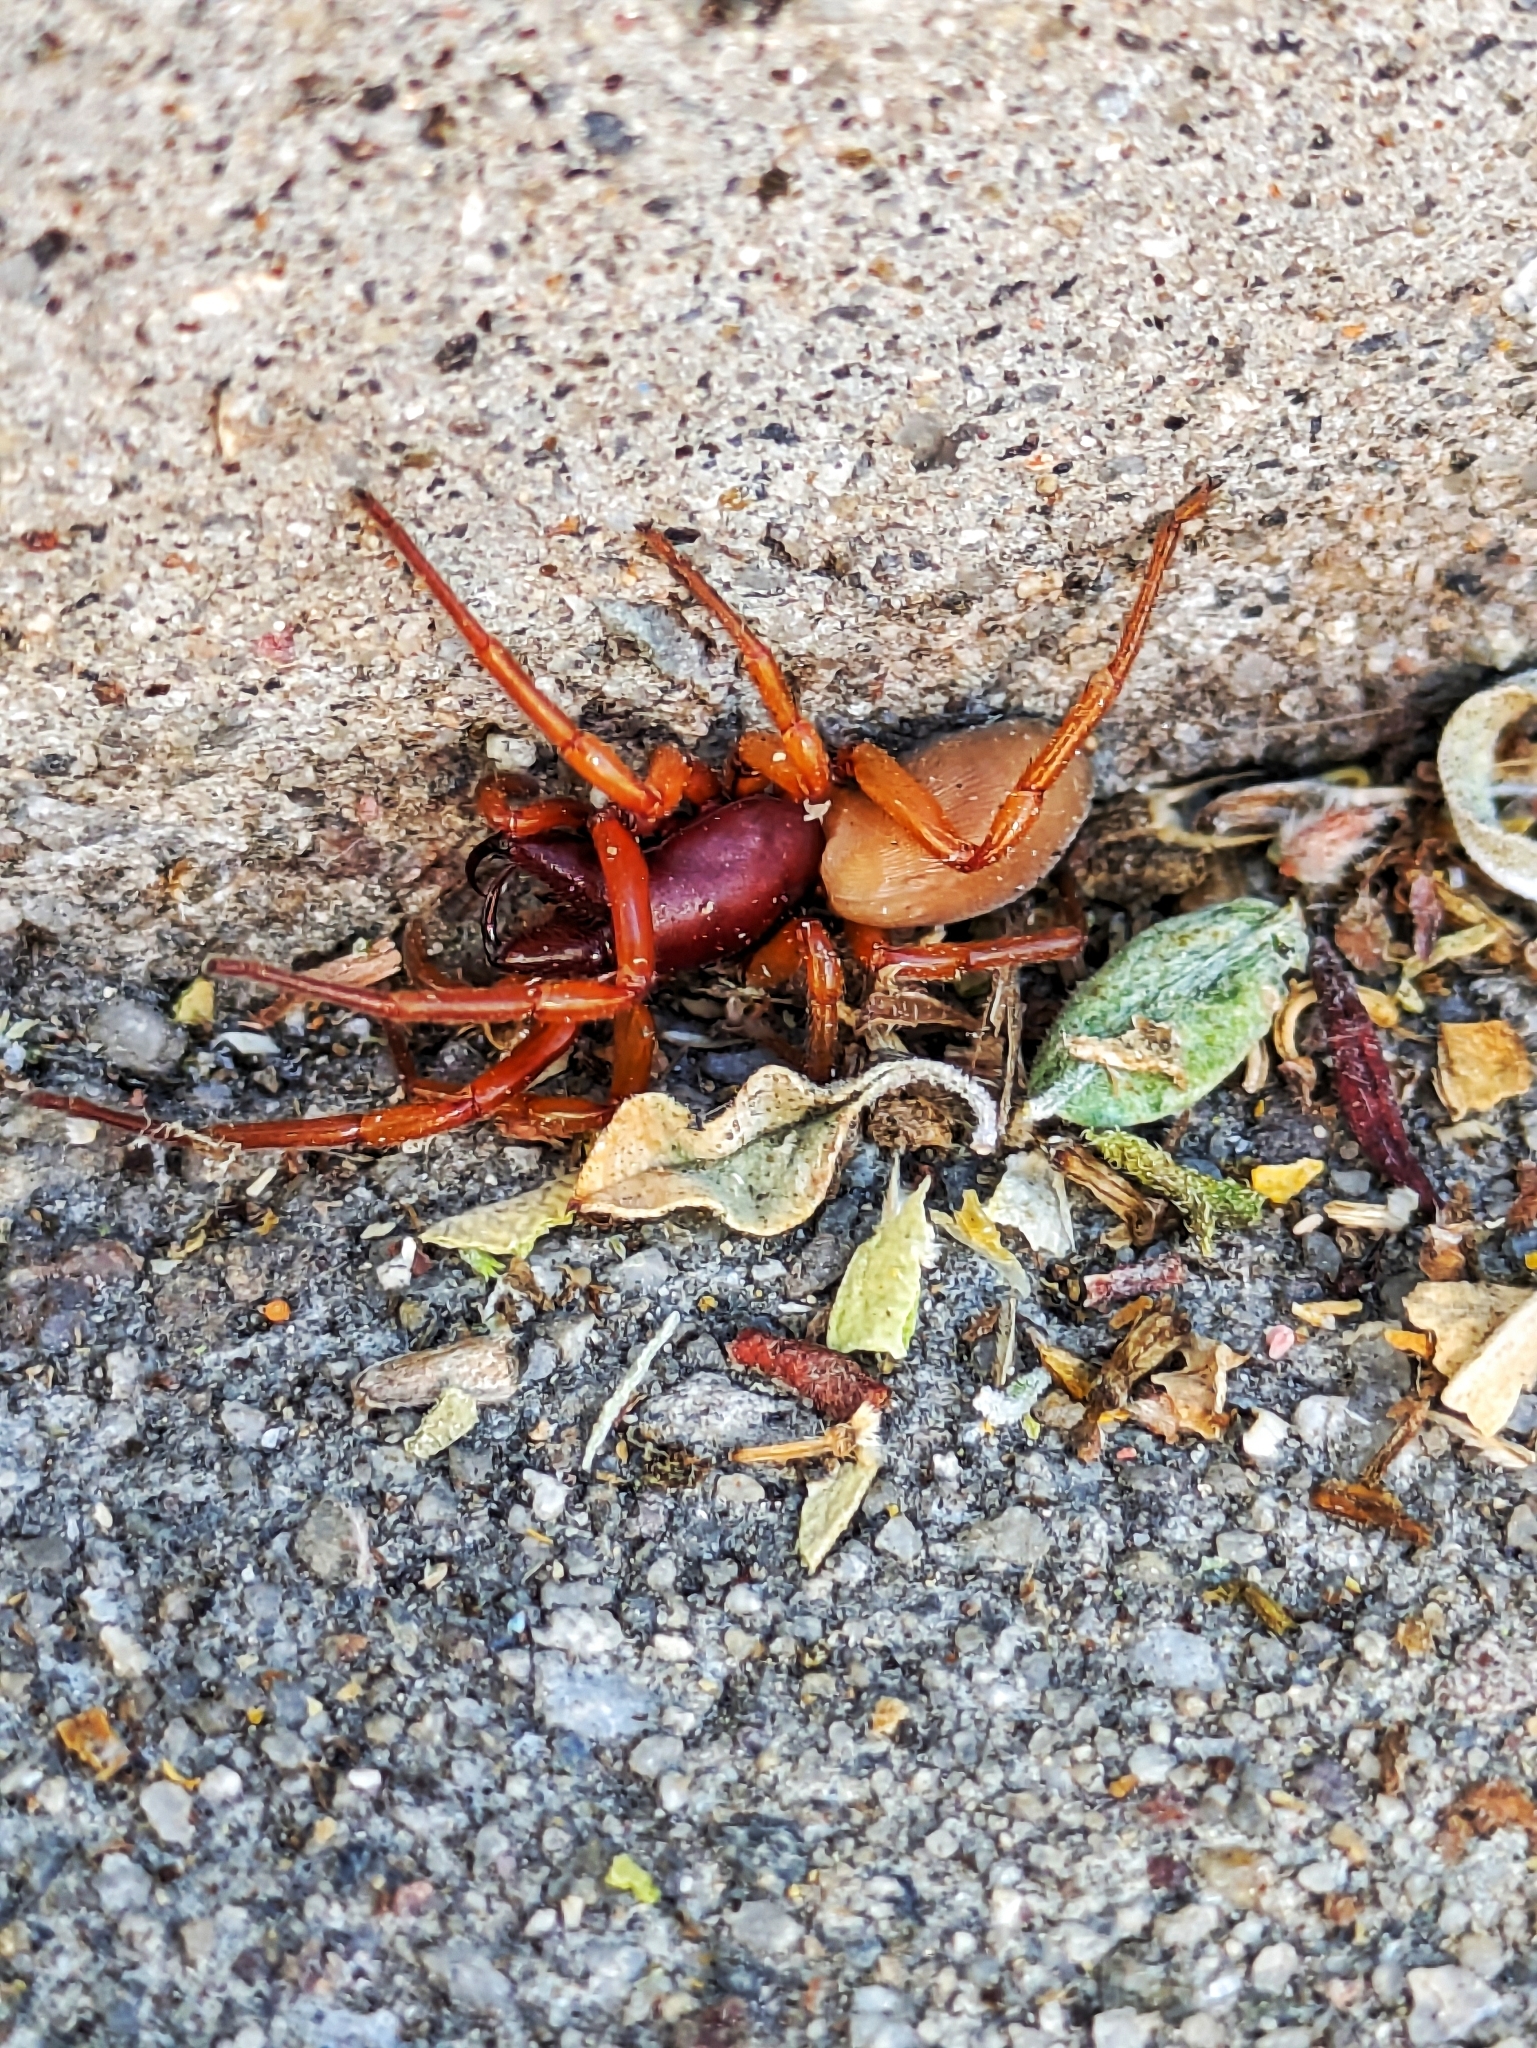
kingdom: Animalia
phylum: Arthropoda
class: Arachnida
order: Araneae
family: Dysderidae
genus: Dysdera
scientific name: Dysdera crocata
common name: Woodlouse spider
